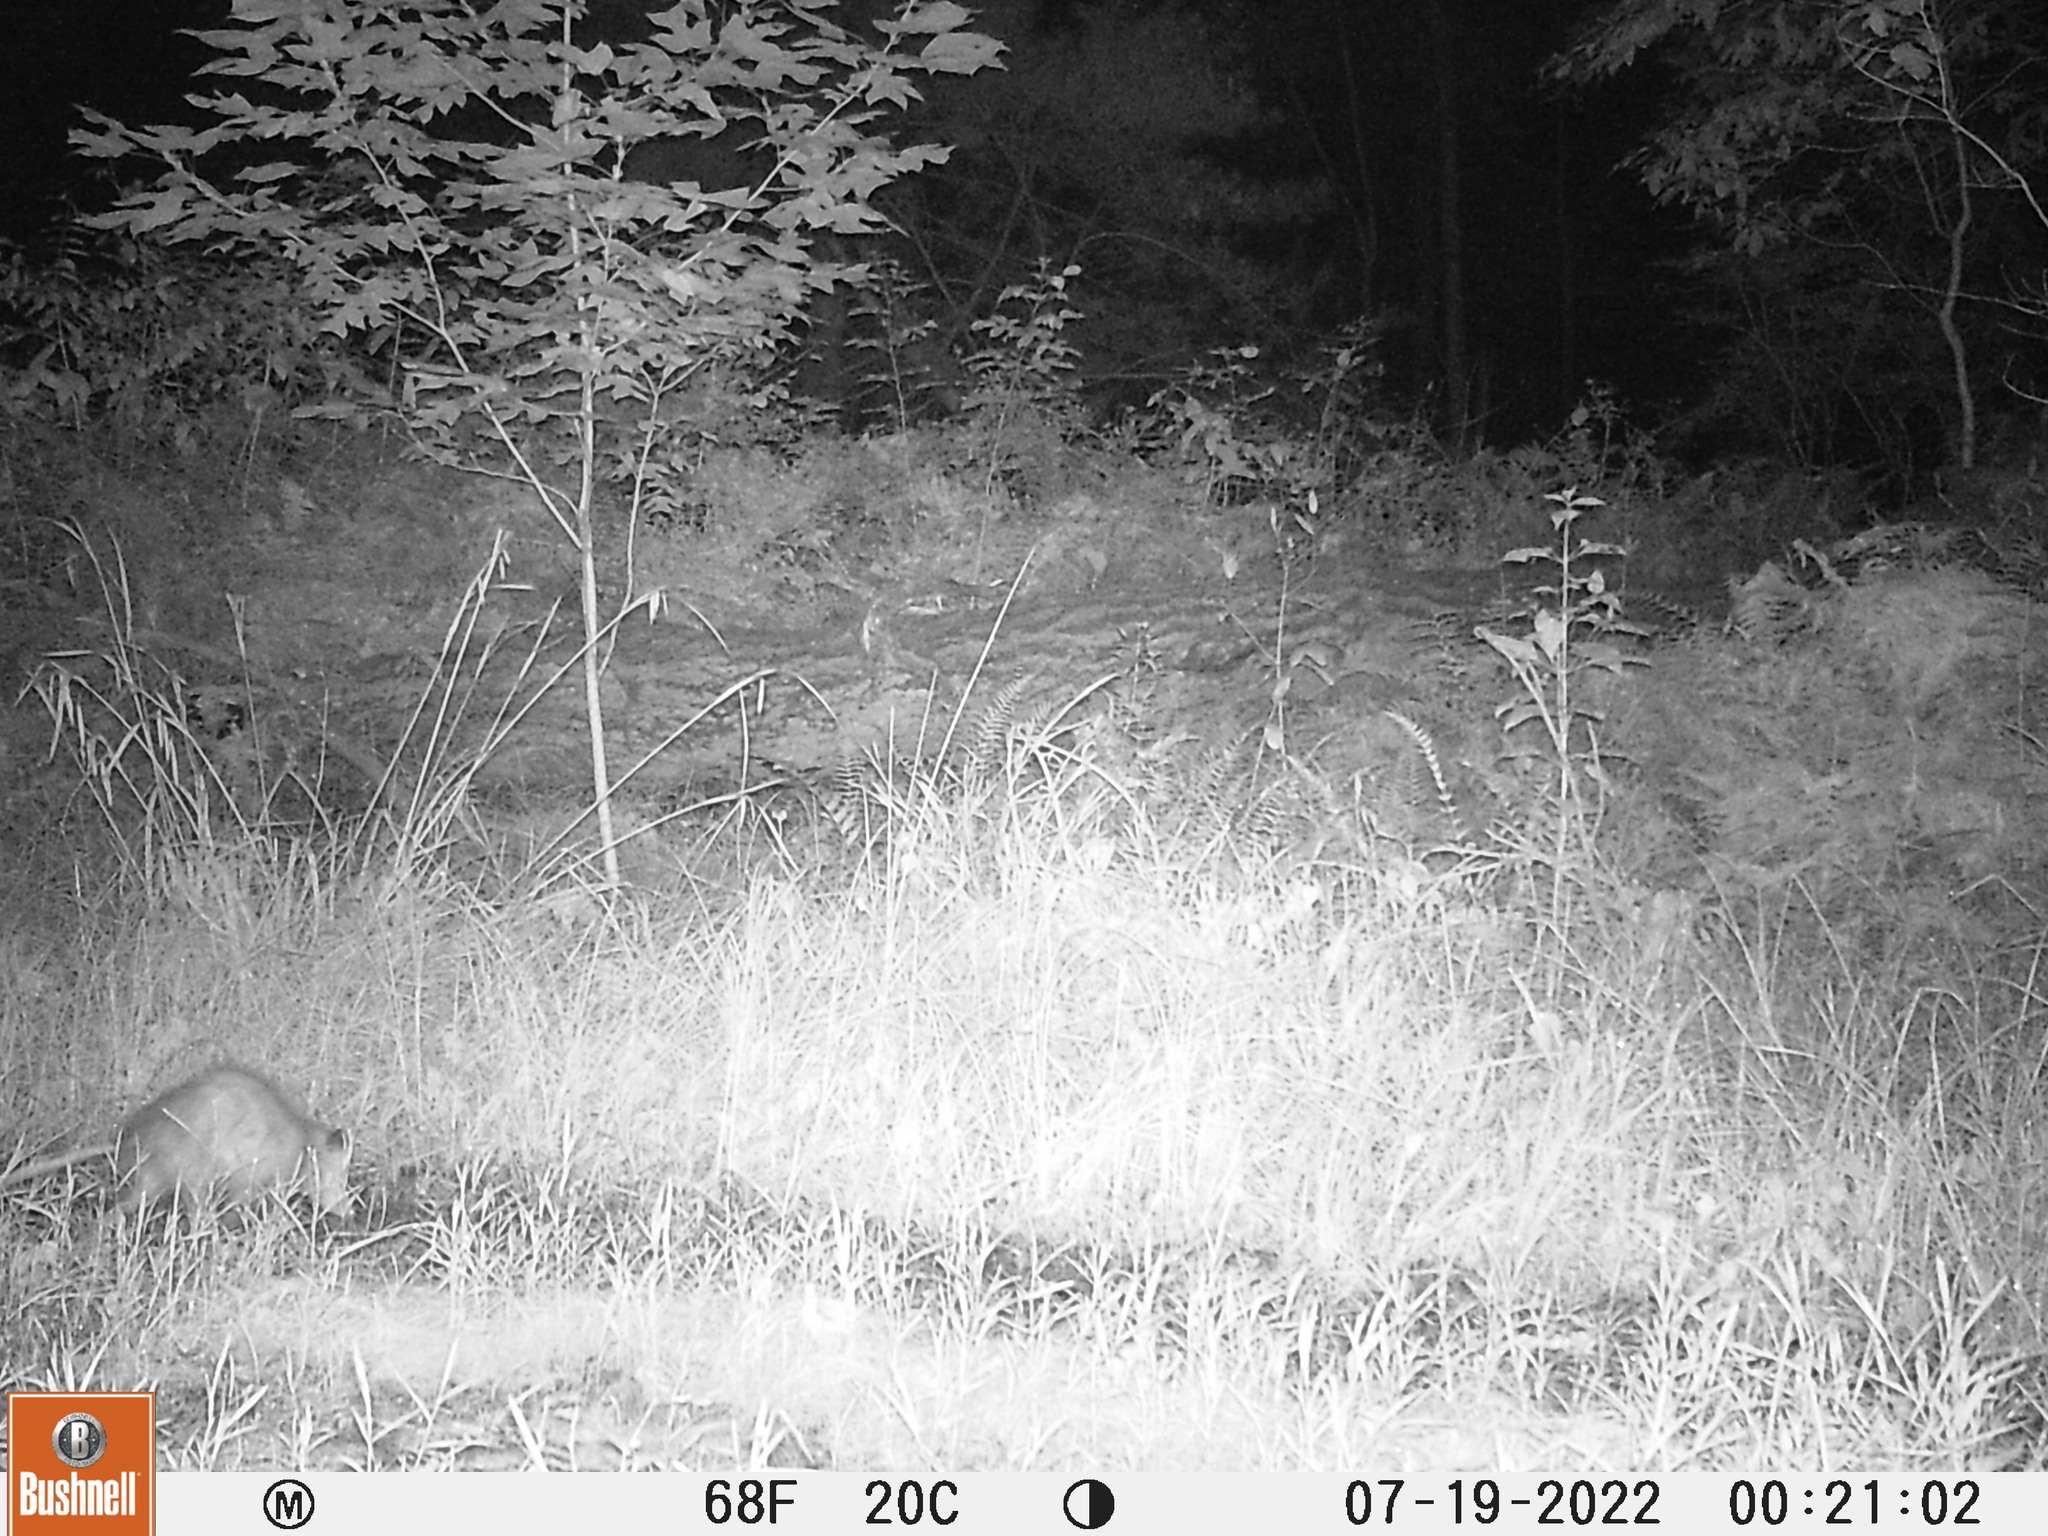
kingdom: Animalia
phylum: Chordata
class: Mammalia
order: Didelphimorphia
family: Didelphidae
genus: Didelphis
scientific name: Didelphis virginiana
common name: Virginia opossum
